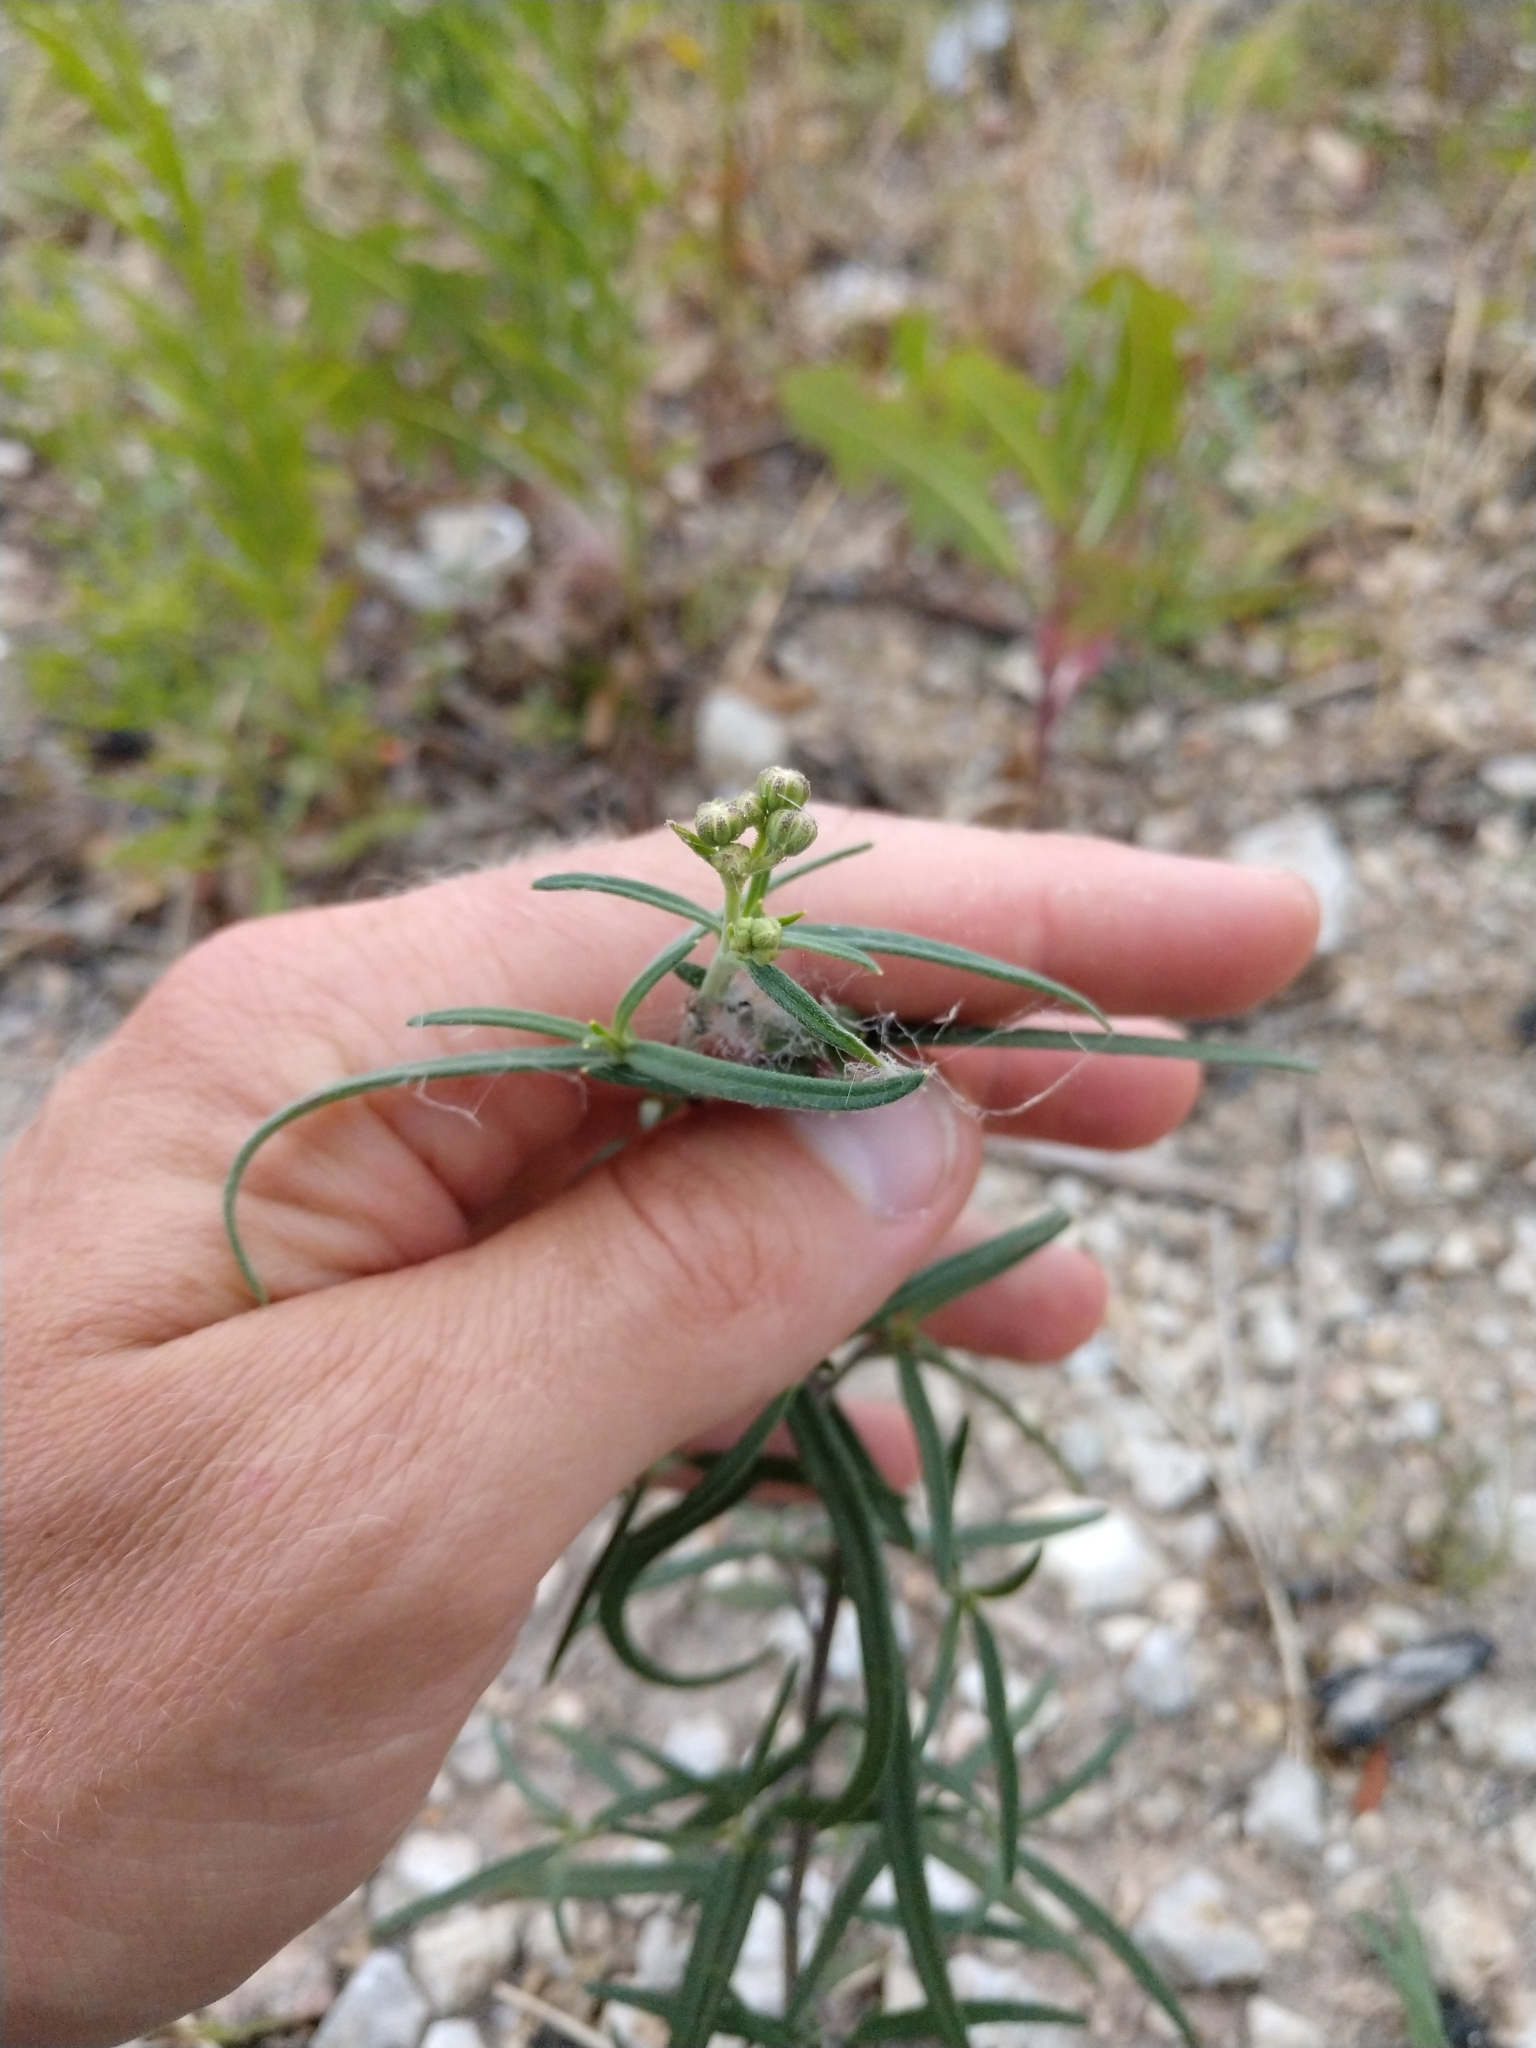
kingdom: Plantae
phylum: Tracheophyta
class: Magnoliopsida
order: Asterales
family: Asteraceae
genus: Palafoxia
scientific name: Palafoxia callosa
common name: Small palafox
